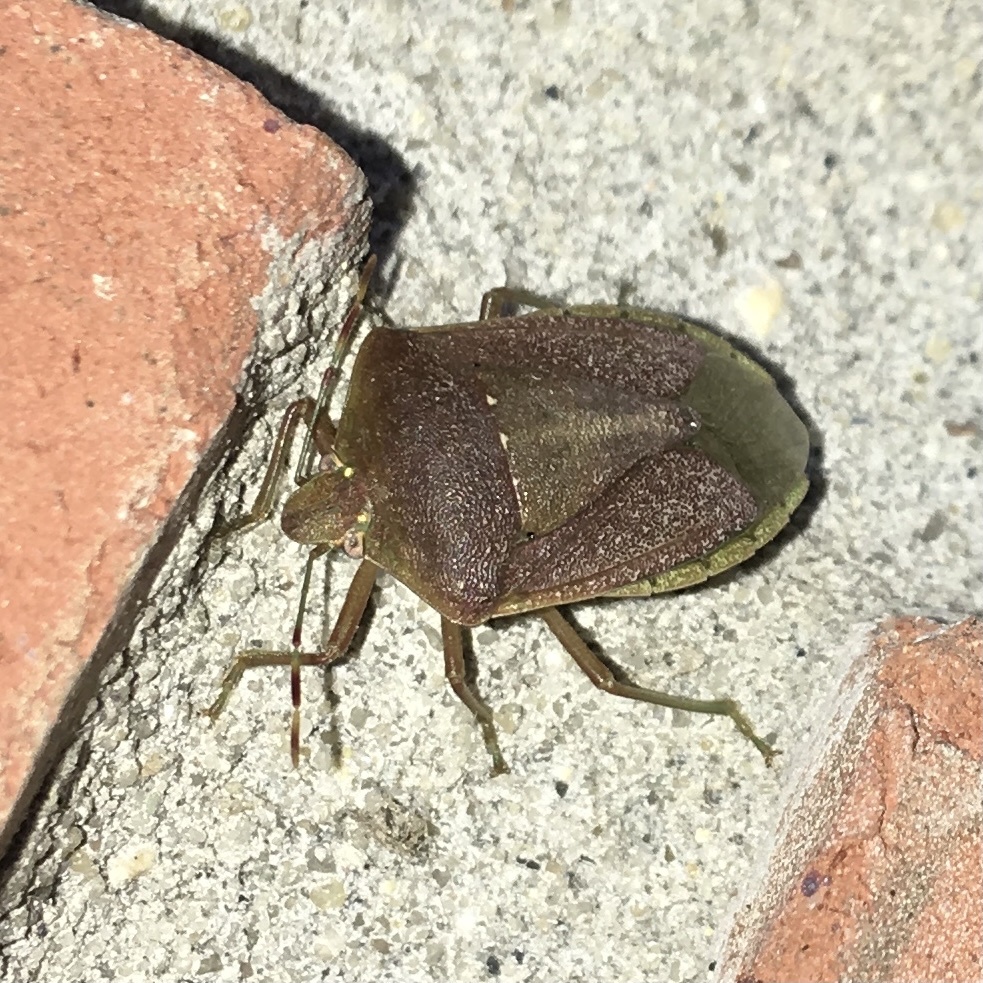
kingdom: Animalia
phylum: Arthropoda
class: Insecta
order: Hemiptera
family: Pentatomidae
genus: Nezara
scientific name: Nezara viridula
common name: Southern green stink bug
